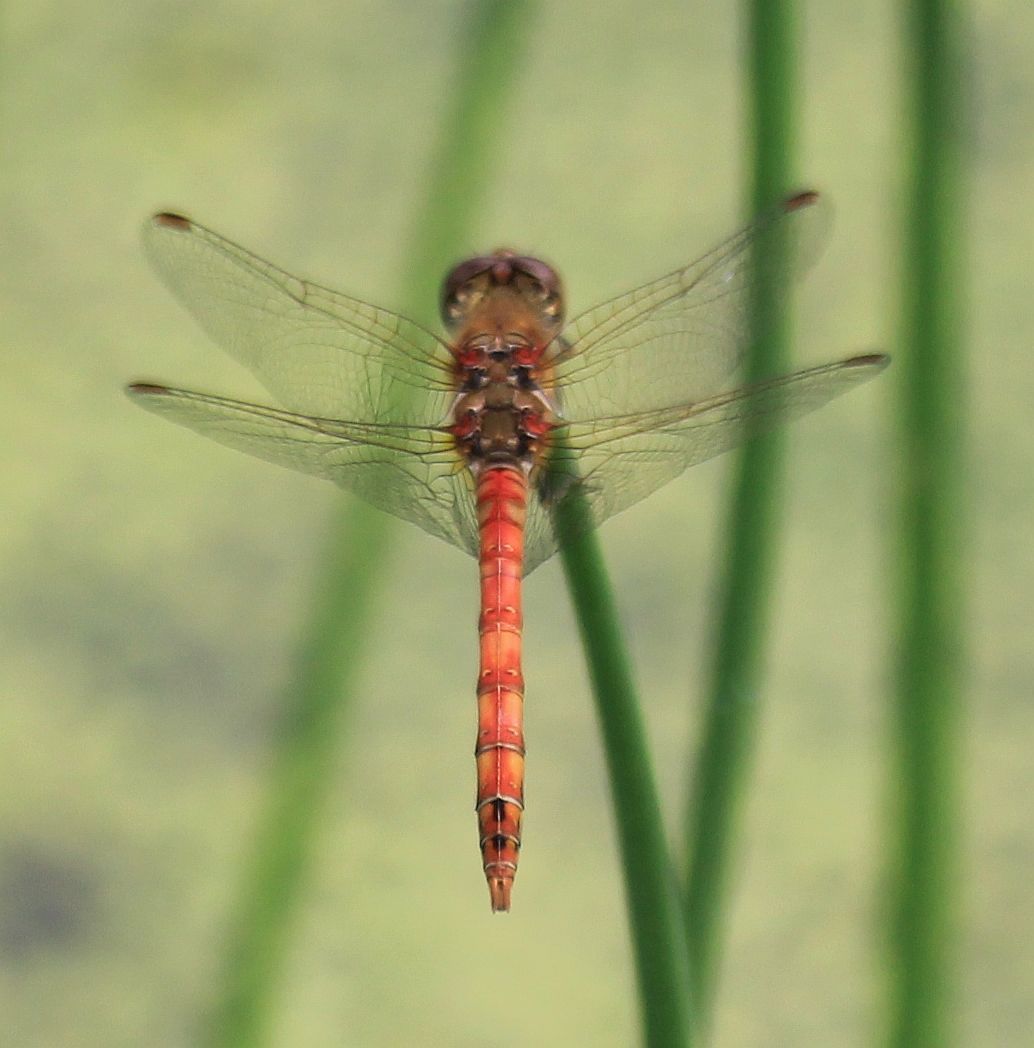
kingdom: Animalia
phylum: Arthropoda
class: Insecta
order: Odonata
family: Libellulidae
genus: Sympetrum
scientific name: Sympetrum striolatum
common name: Common darter
